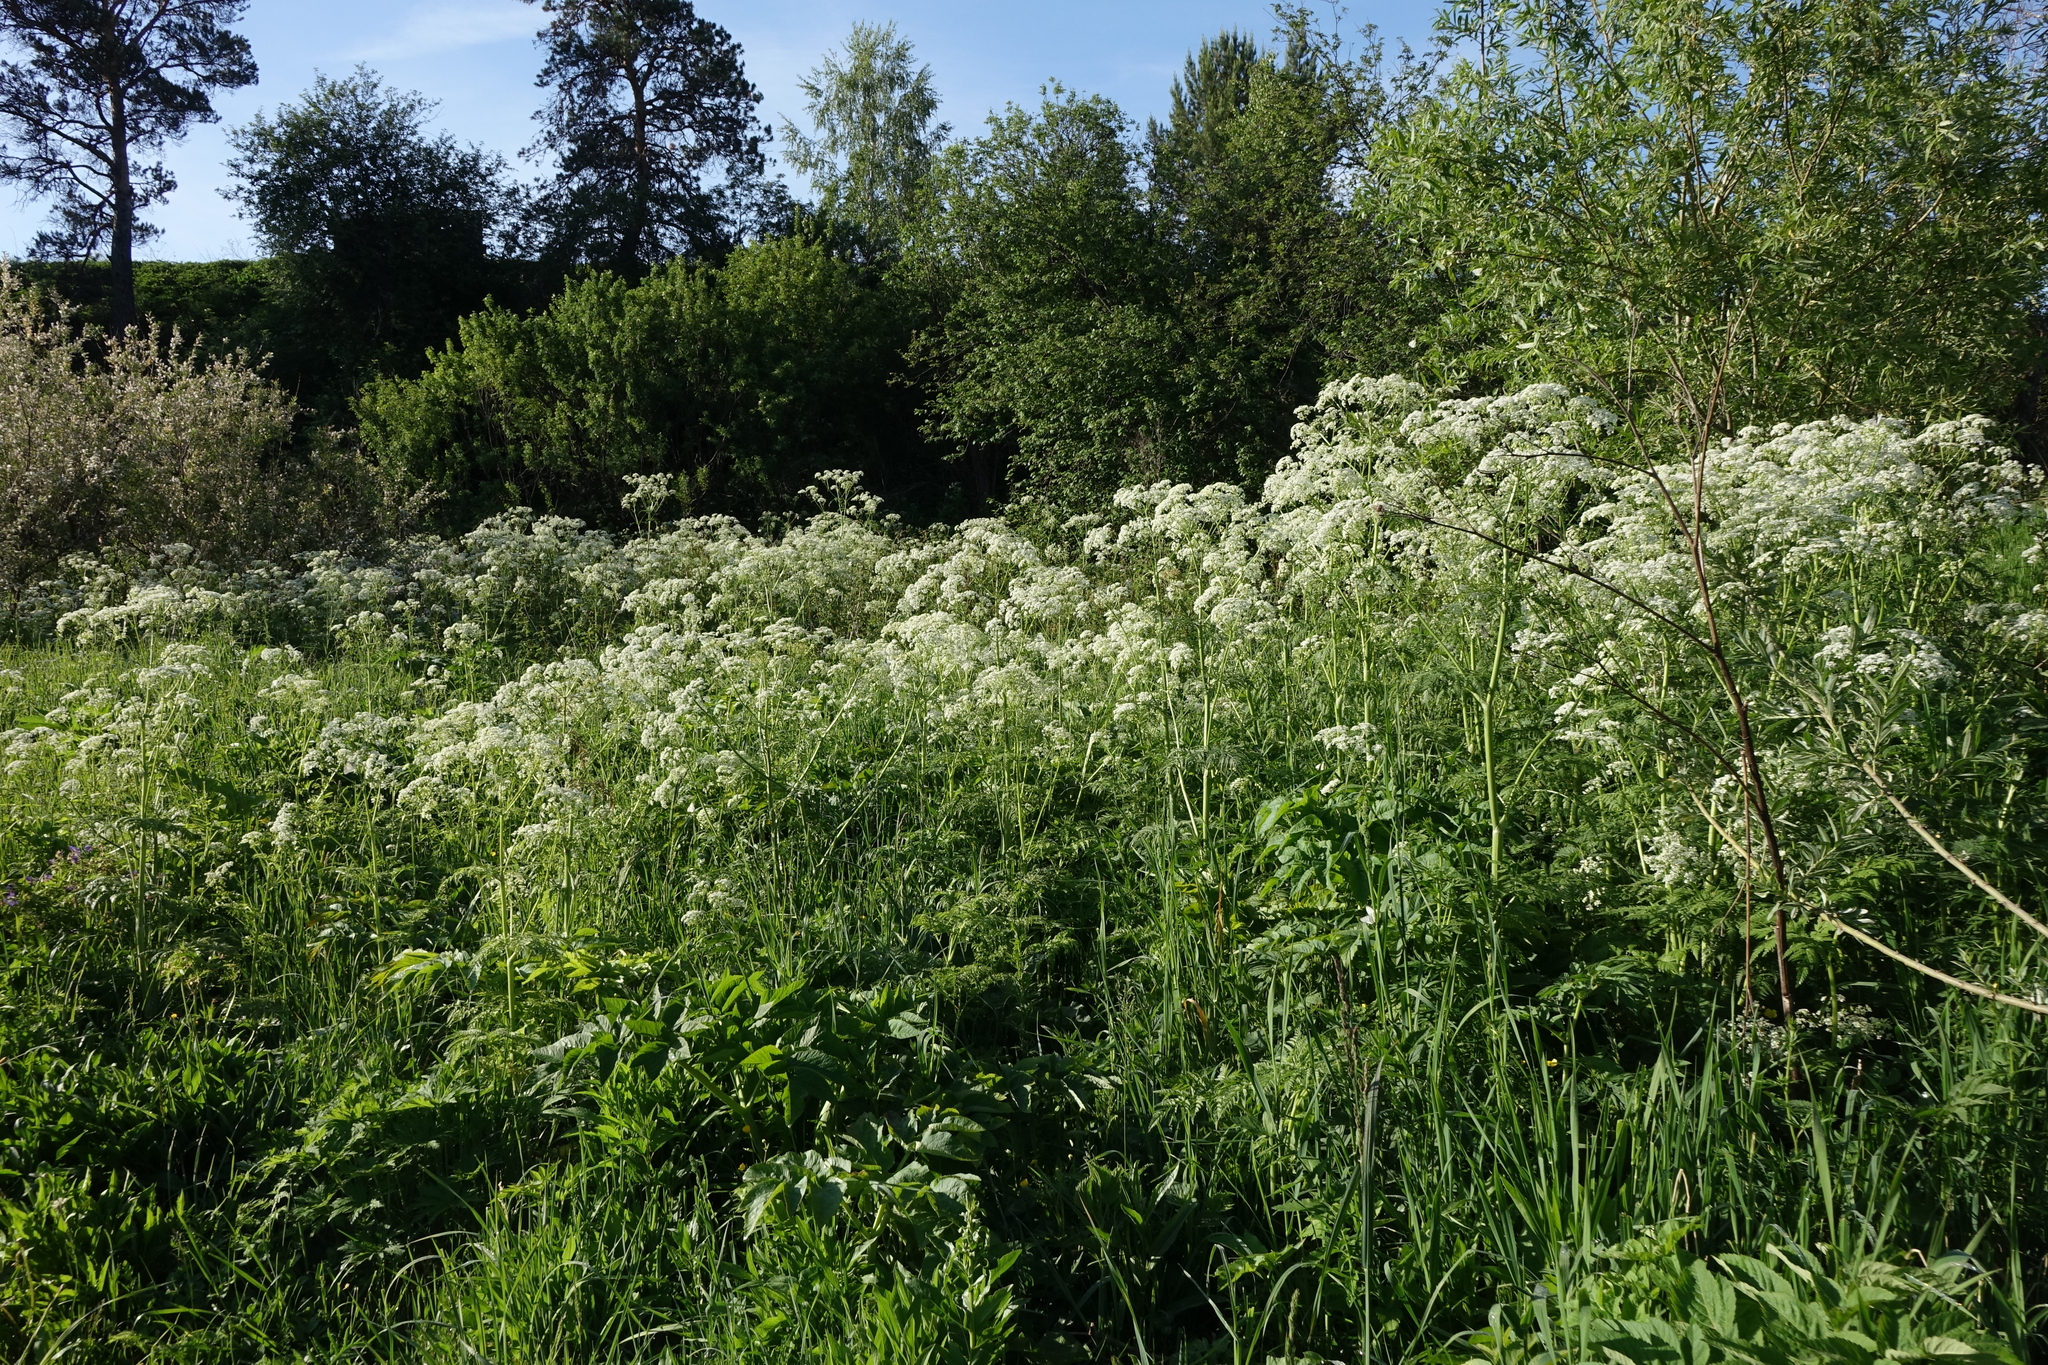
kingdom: Plantae
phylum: Tracheophyta
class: Magnoliopsida
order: Apiales
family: Apiaceae
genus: Anthriscus
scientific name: Anthriscus sylvestris
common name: Cow parsley
